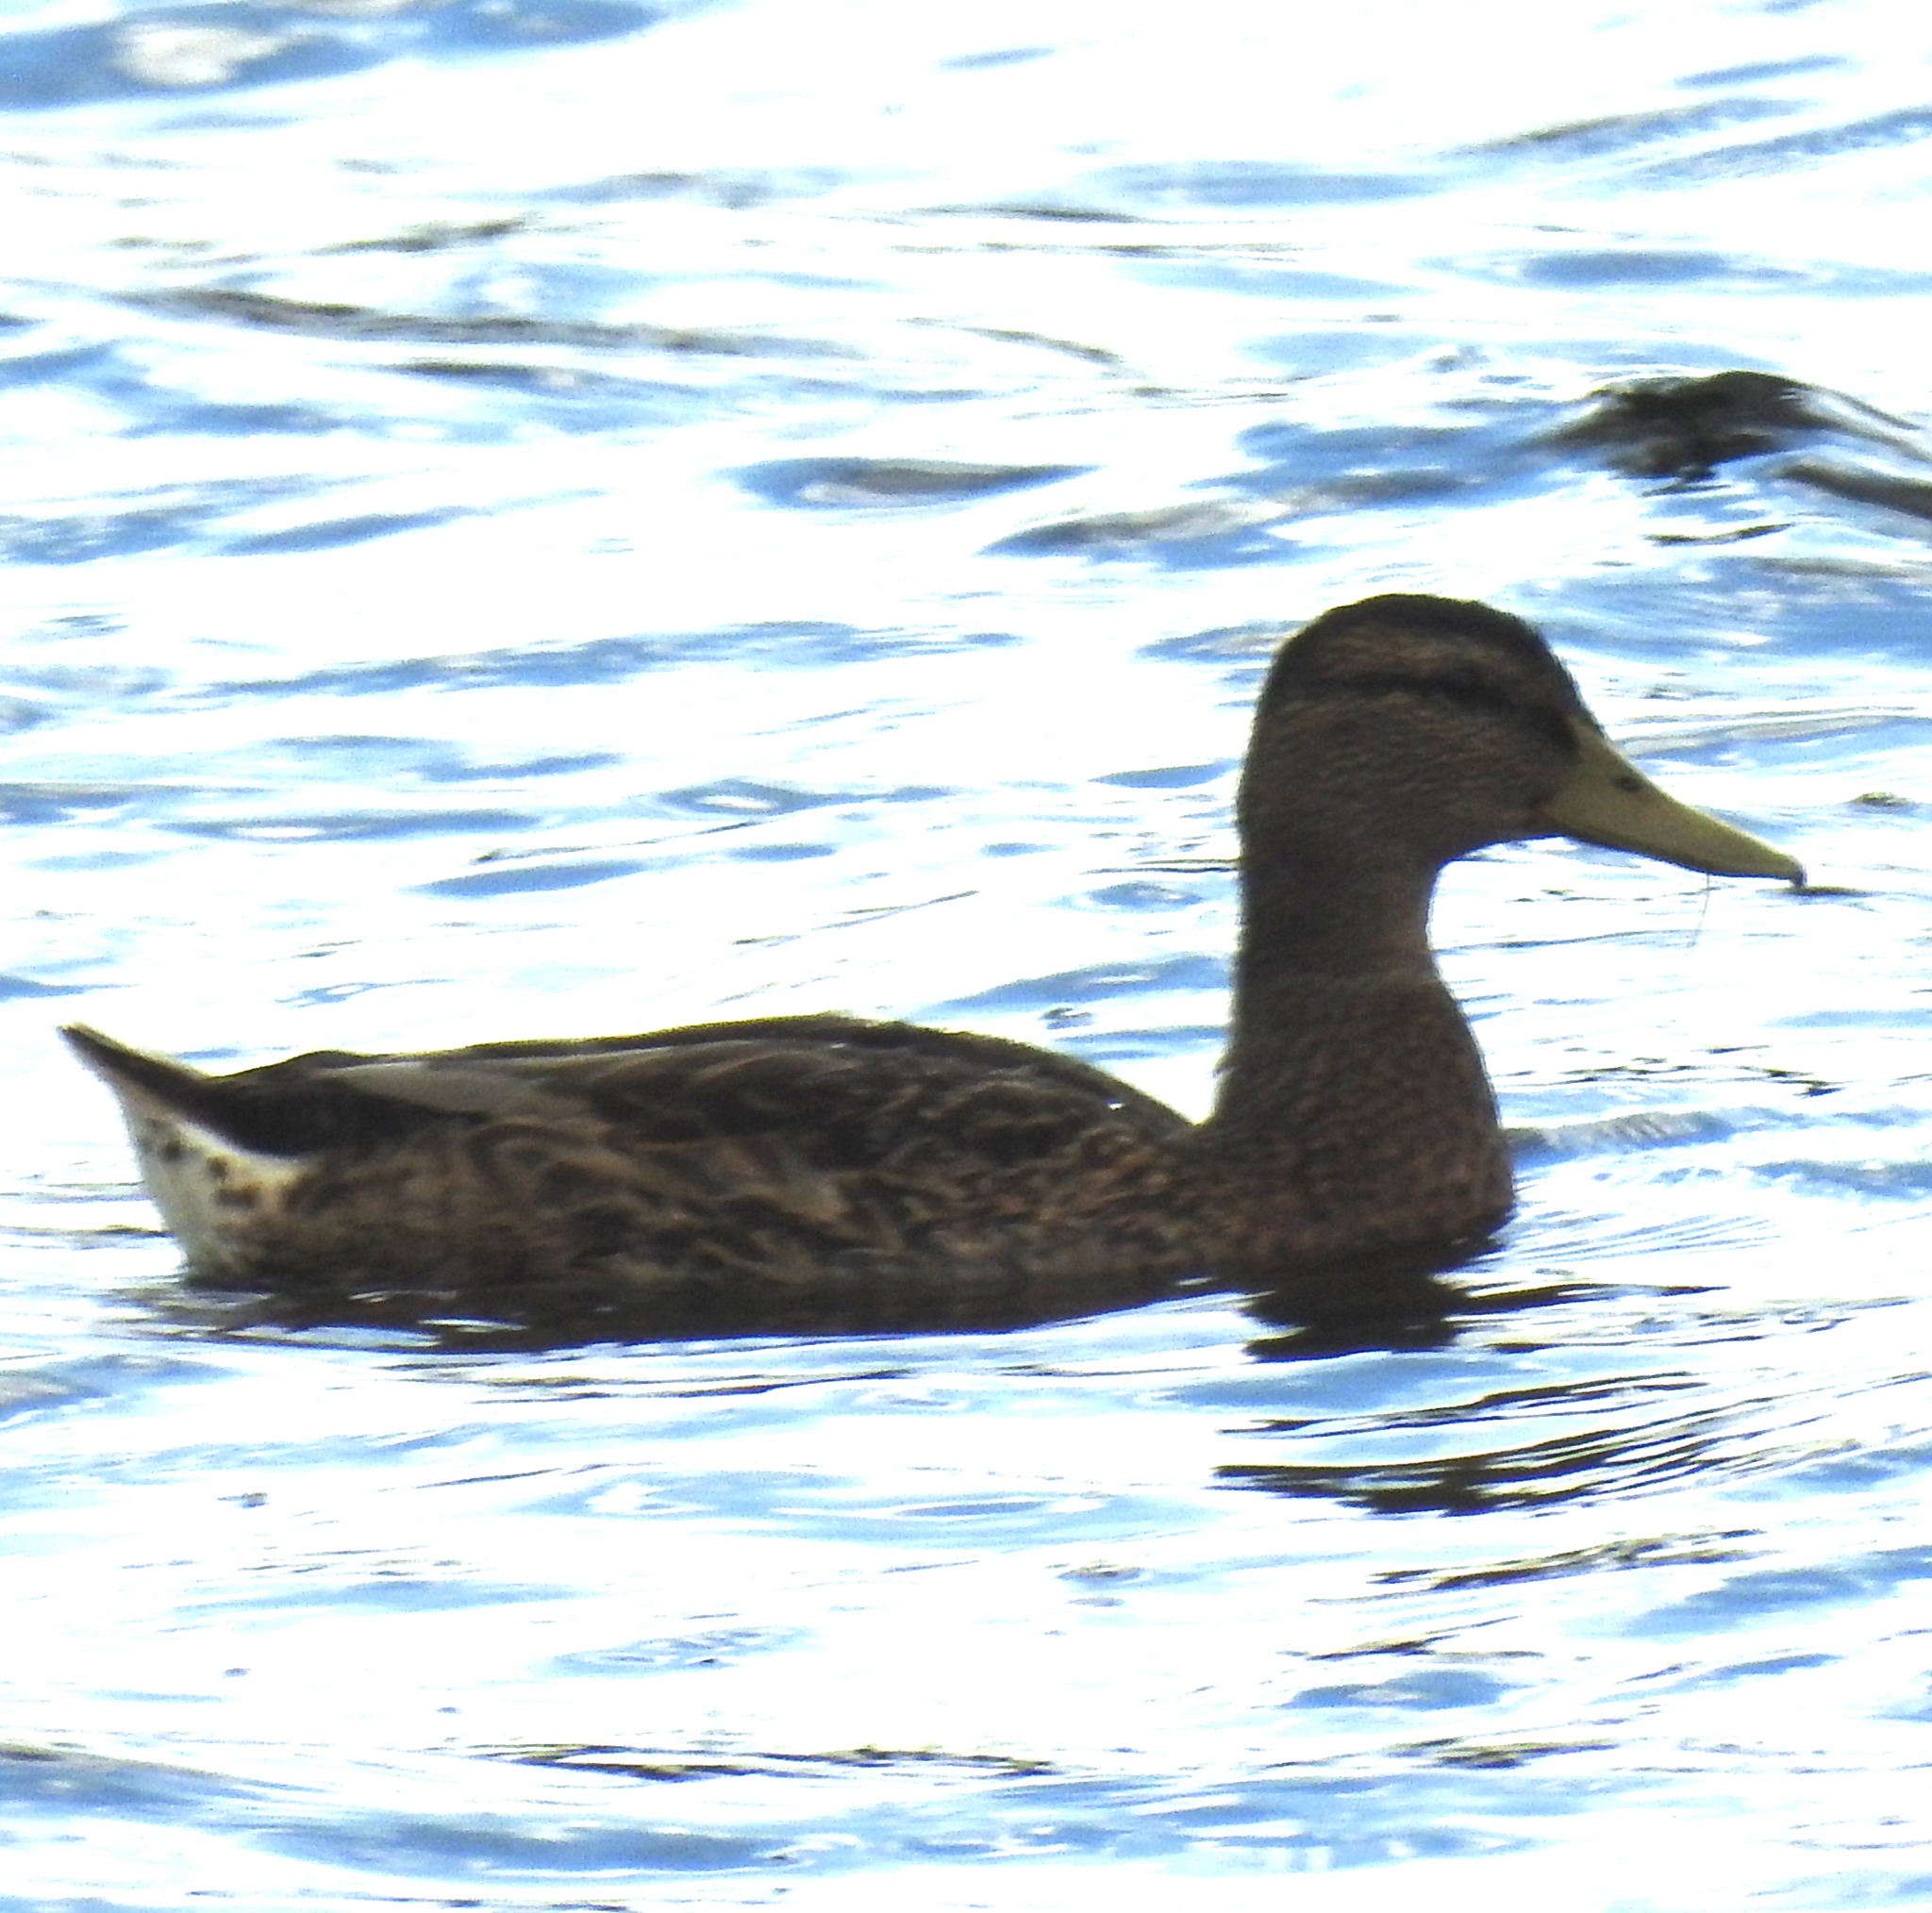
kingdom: Animalia
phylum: Chordata
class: Aves
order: Anseriformes
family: Anatidae
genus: Anas
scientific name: Anas platyrhynchos
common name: Mallard
